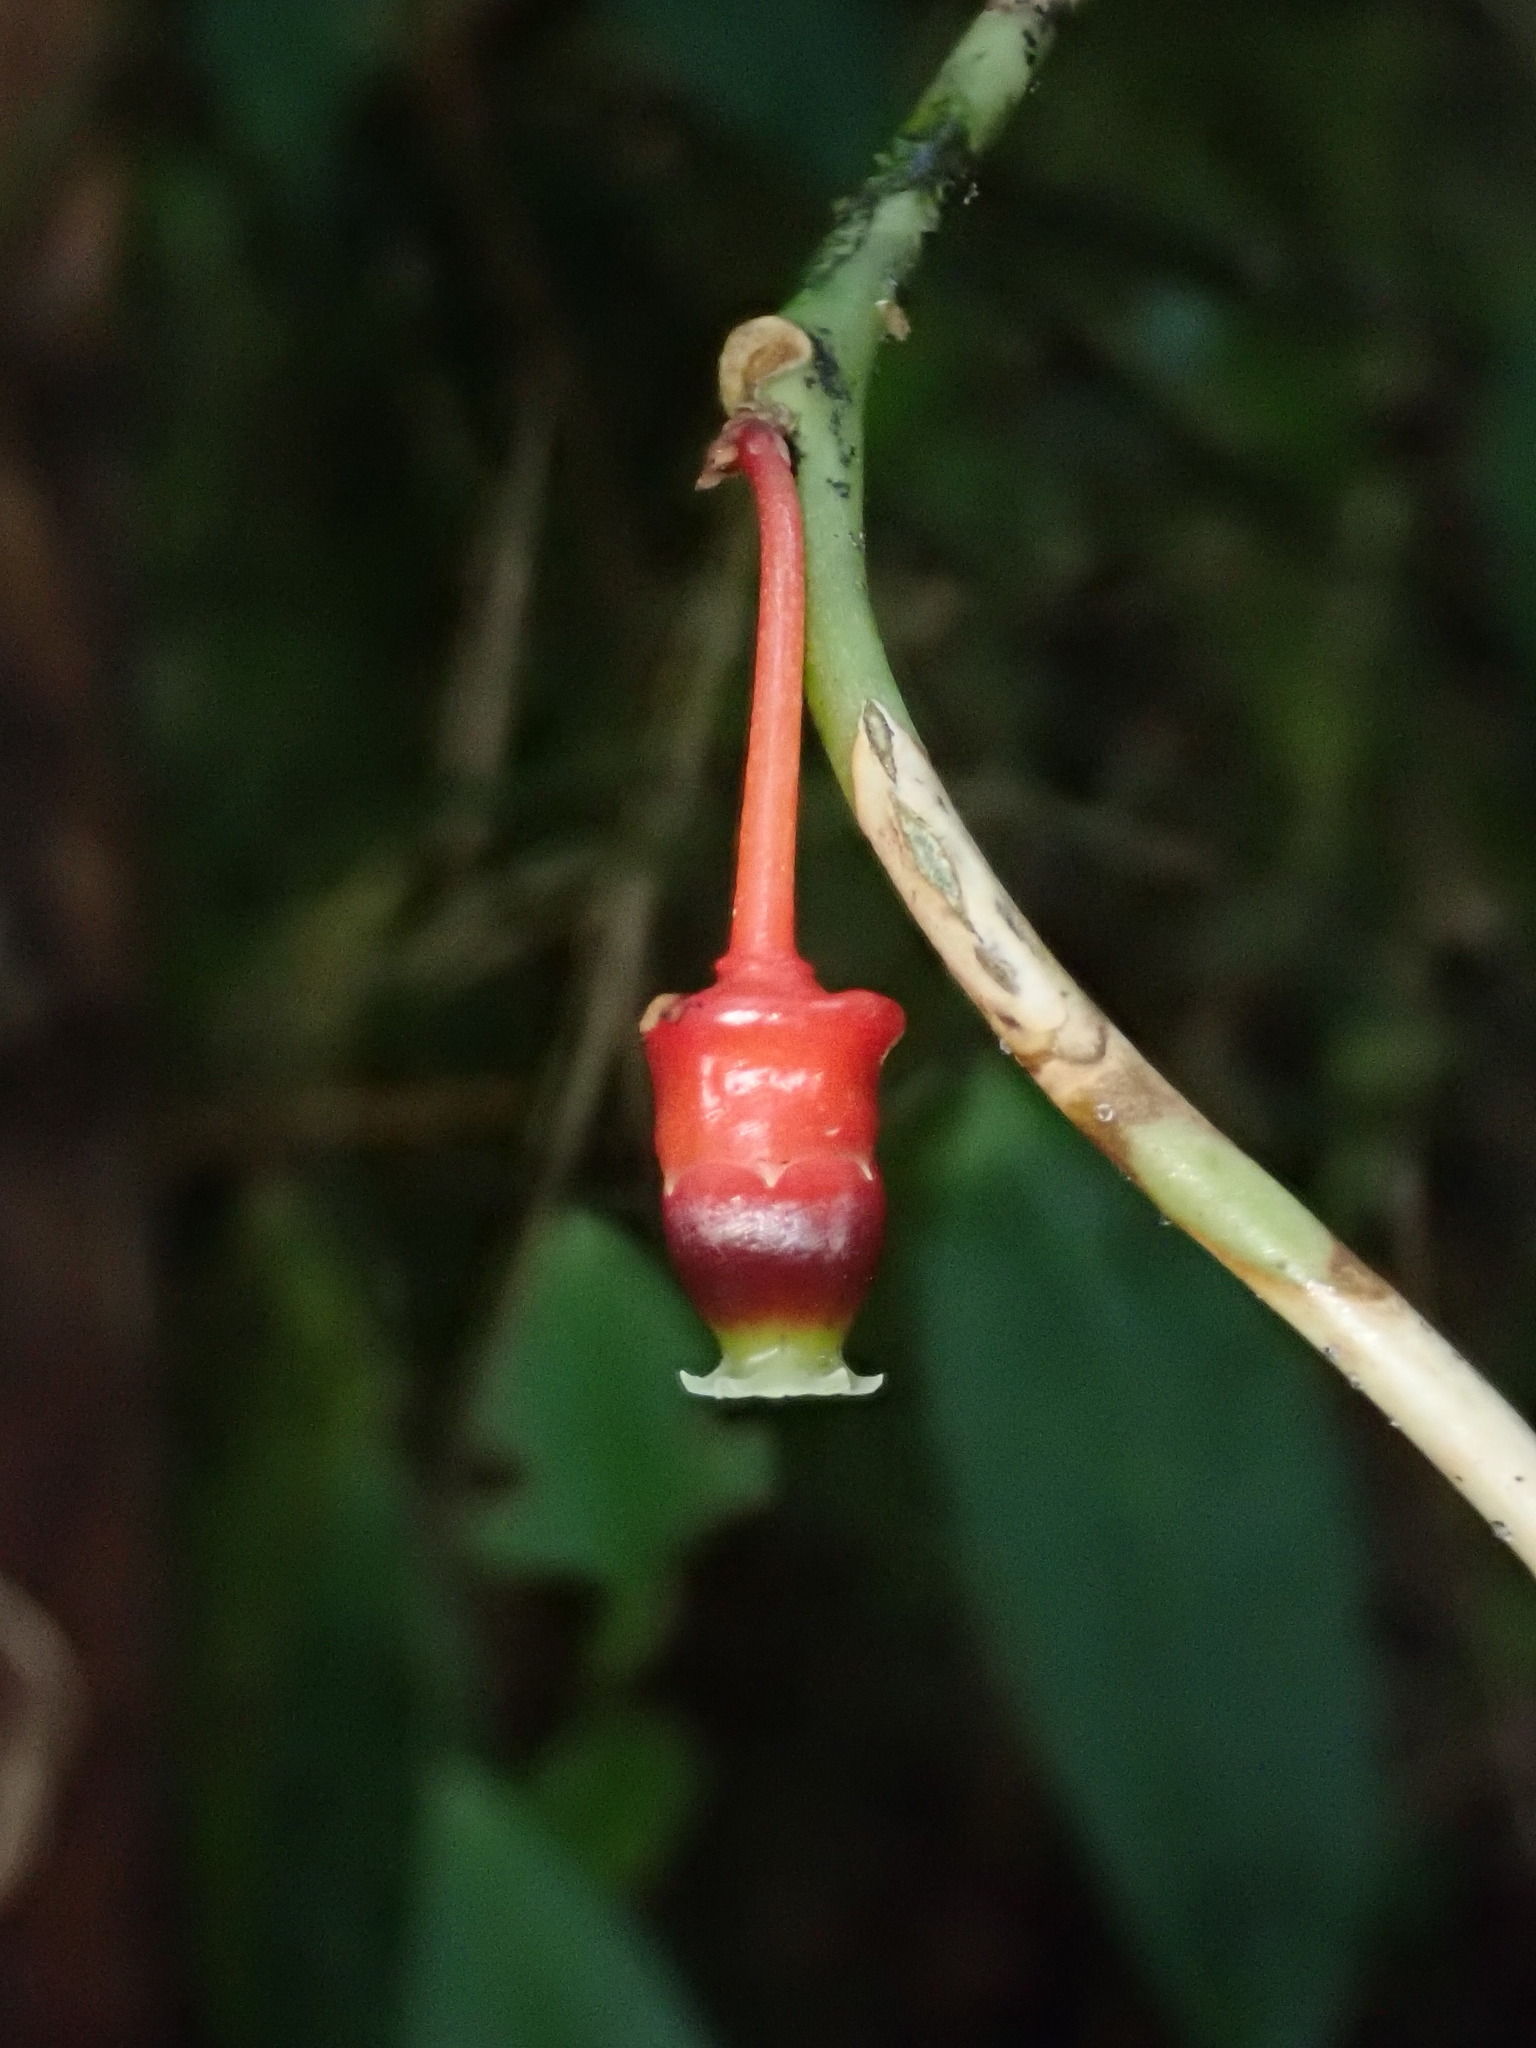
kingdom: Plantae
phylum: Tracheophyta
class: Magnoliopsida
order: Ericales
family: Ericaceae
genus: Psammisia
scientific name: Psammisia sclerantha
